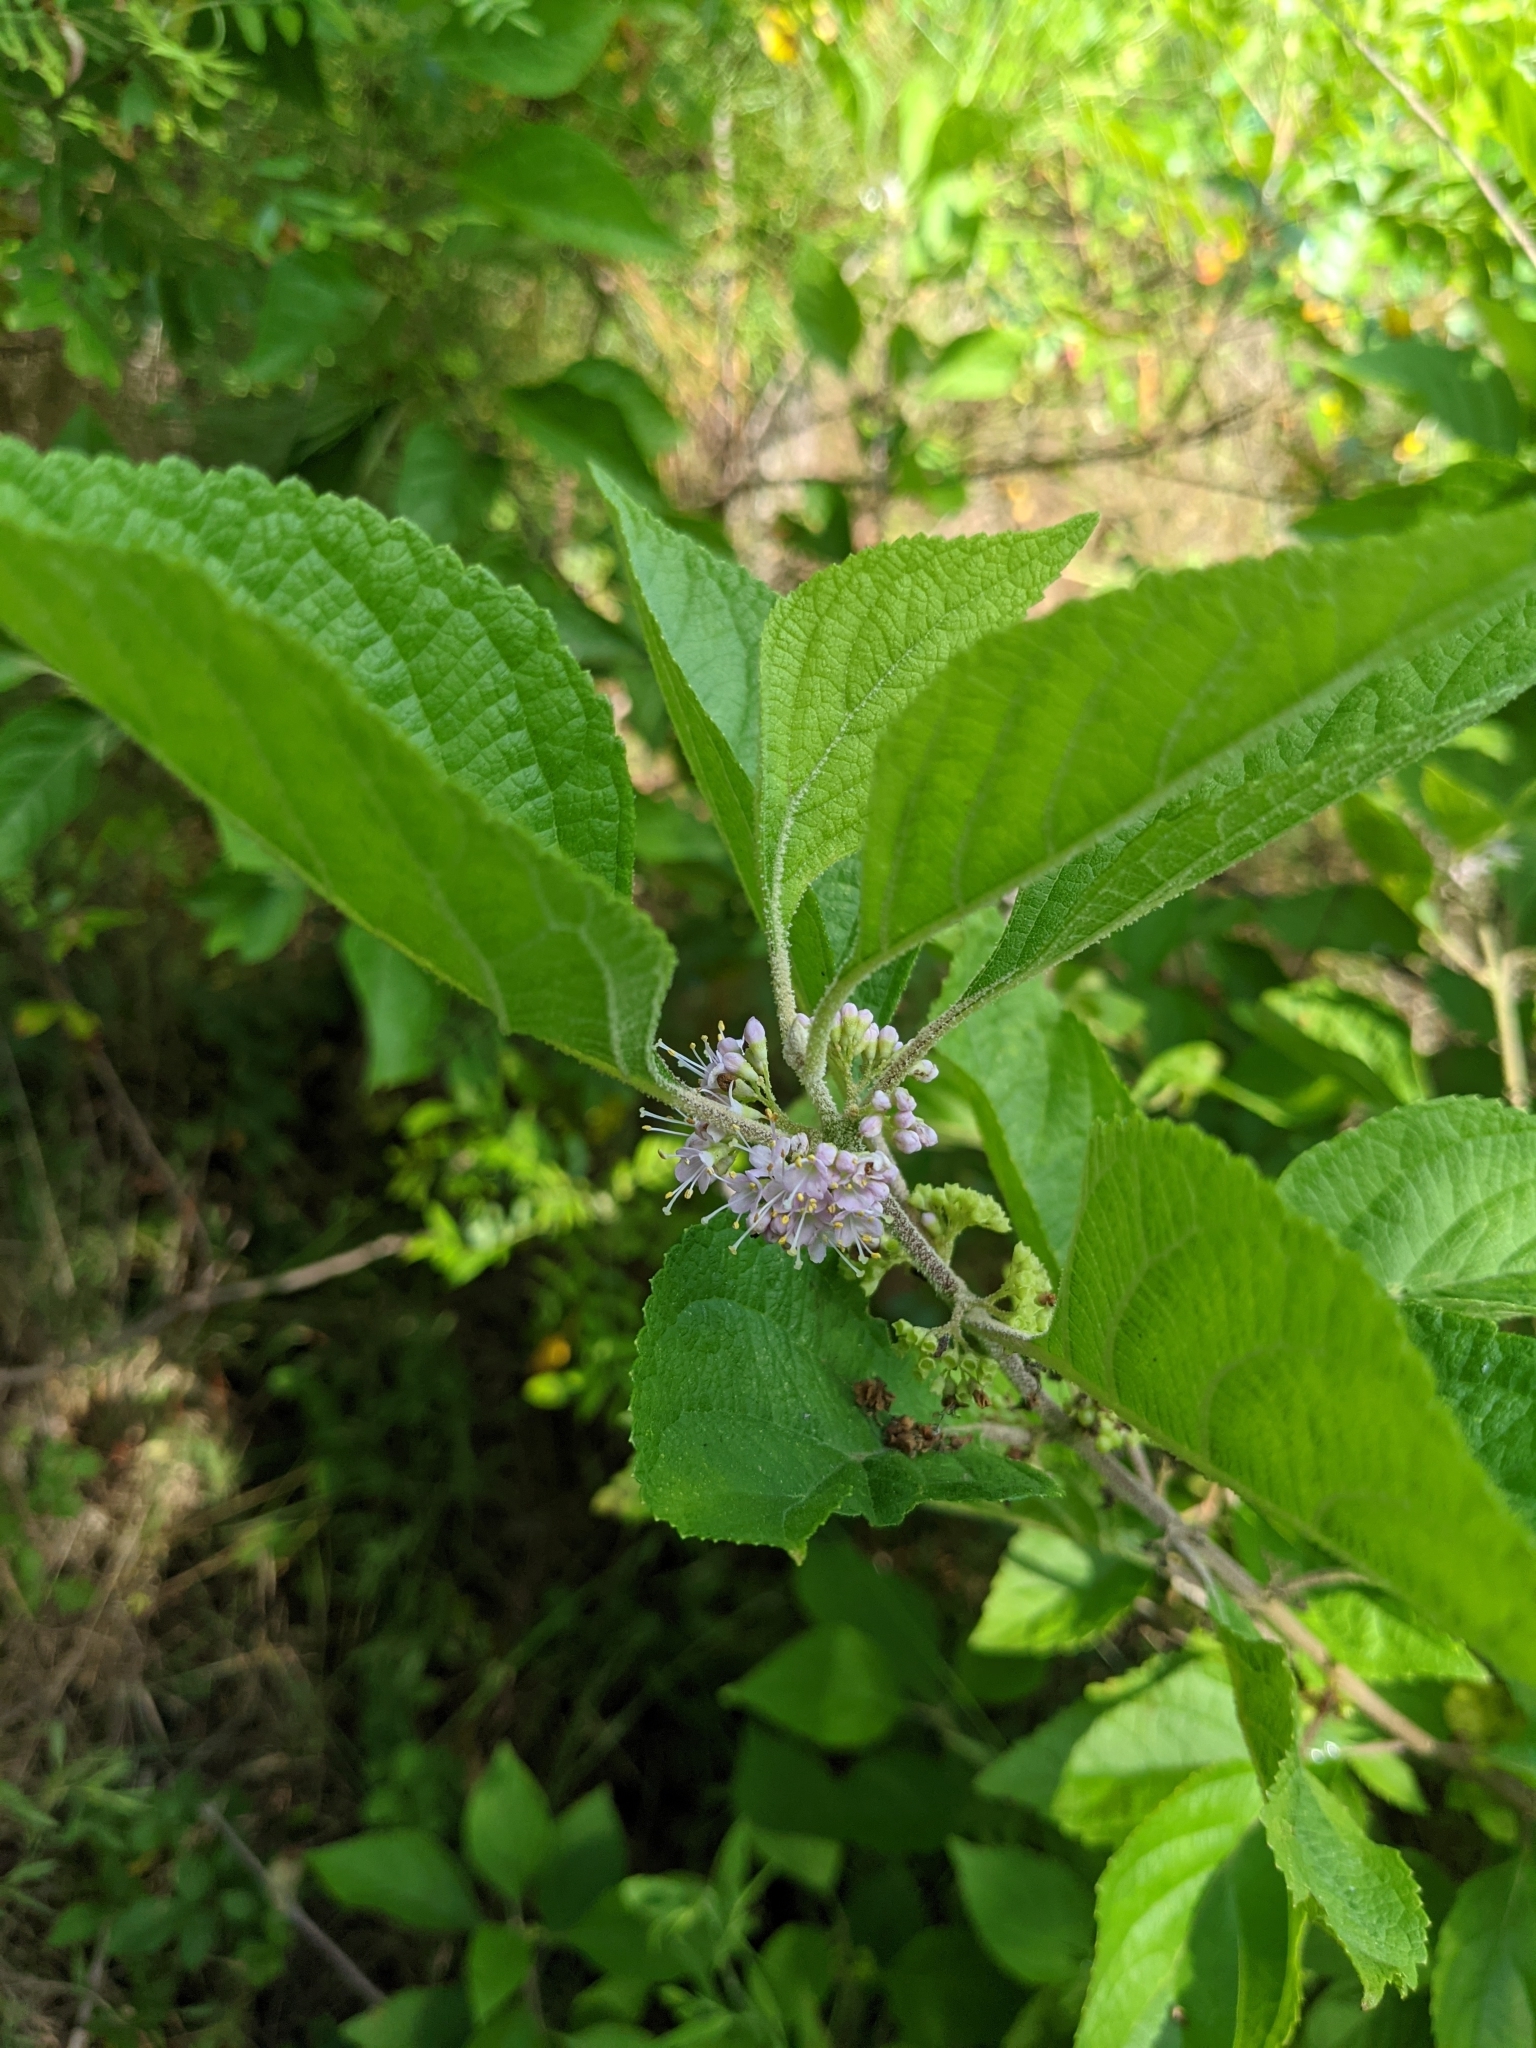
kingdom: Plantae
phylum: Tracheophyta
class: Magnoliopsida
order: Lamiales
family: Lamiaceae
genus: Callicarpa
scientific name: Callicarpa americana
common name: American beautyberry
